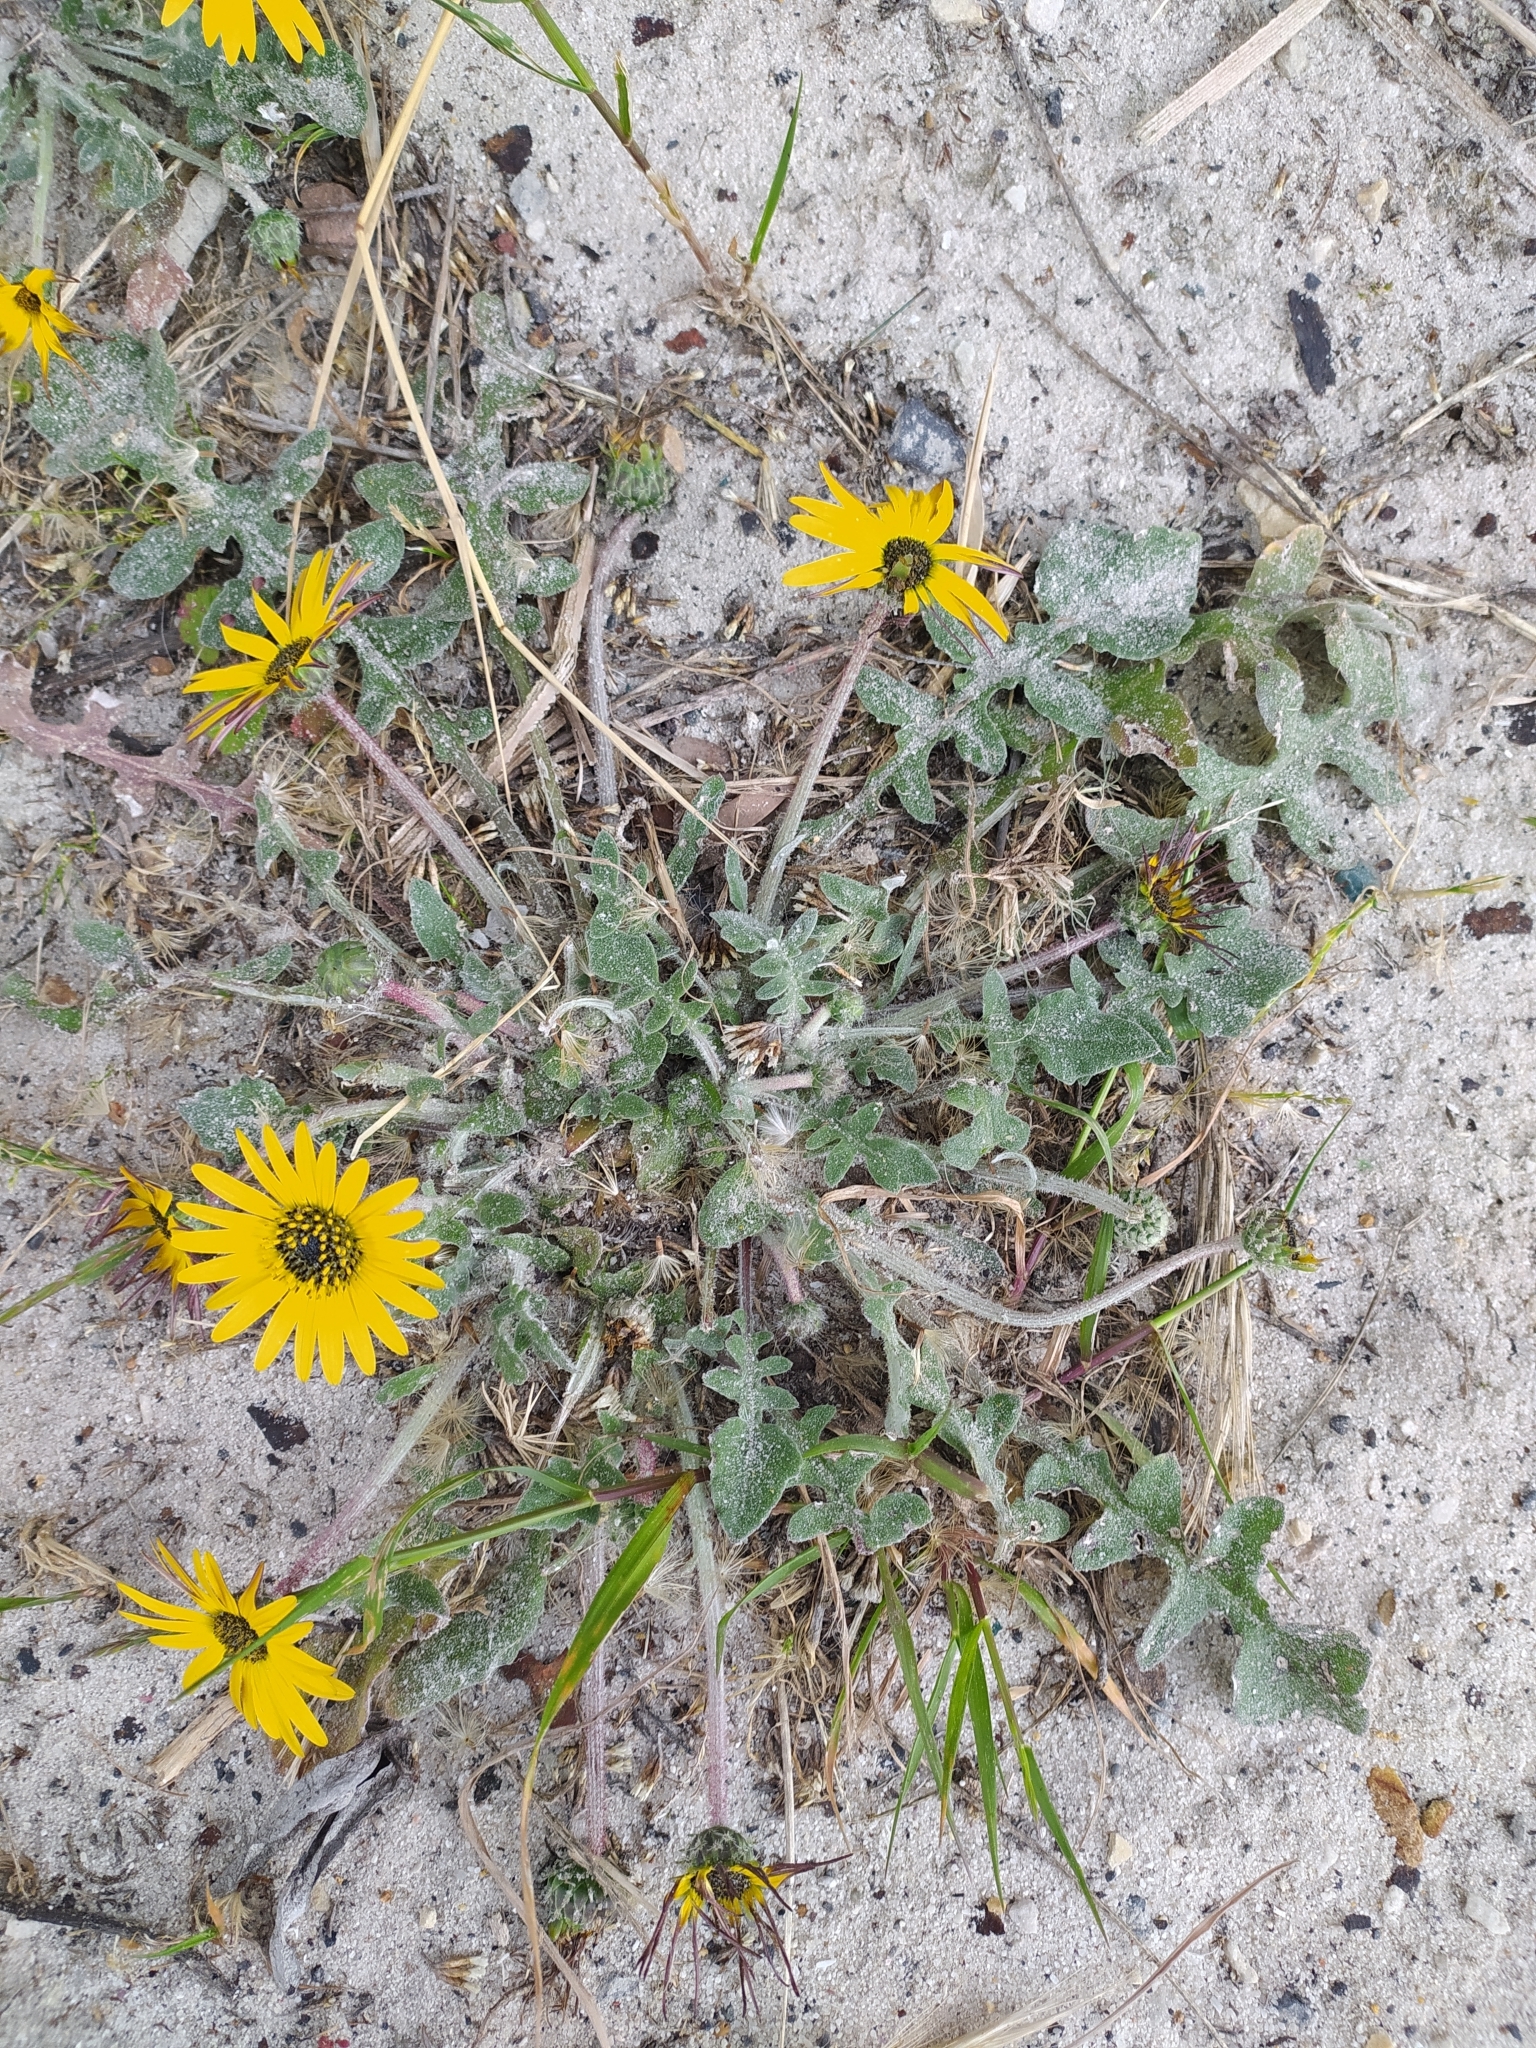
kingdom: Plantae
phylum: Tracheophyta
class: Magnoliopsida
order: Asterales
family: Asteraceae
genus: Arctotheca
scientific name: Arctotheca calendula
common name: Capeweed
